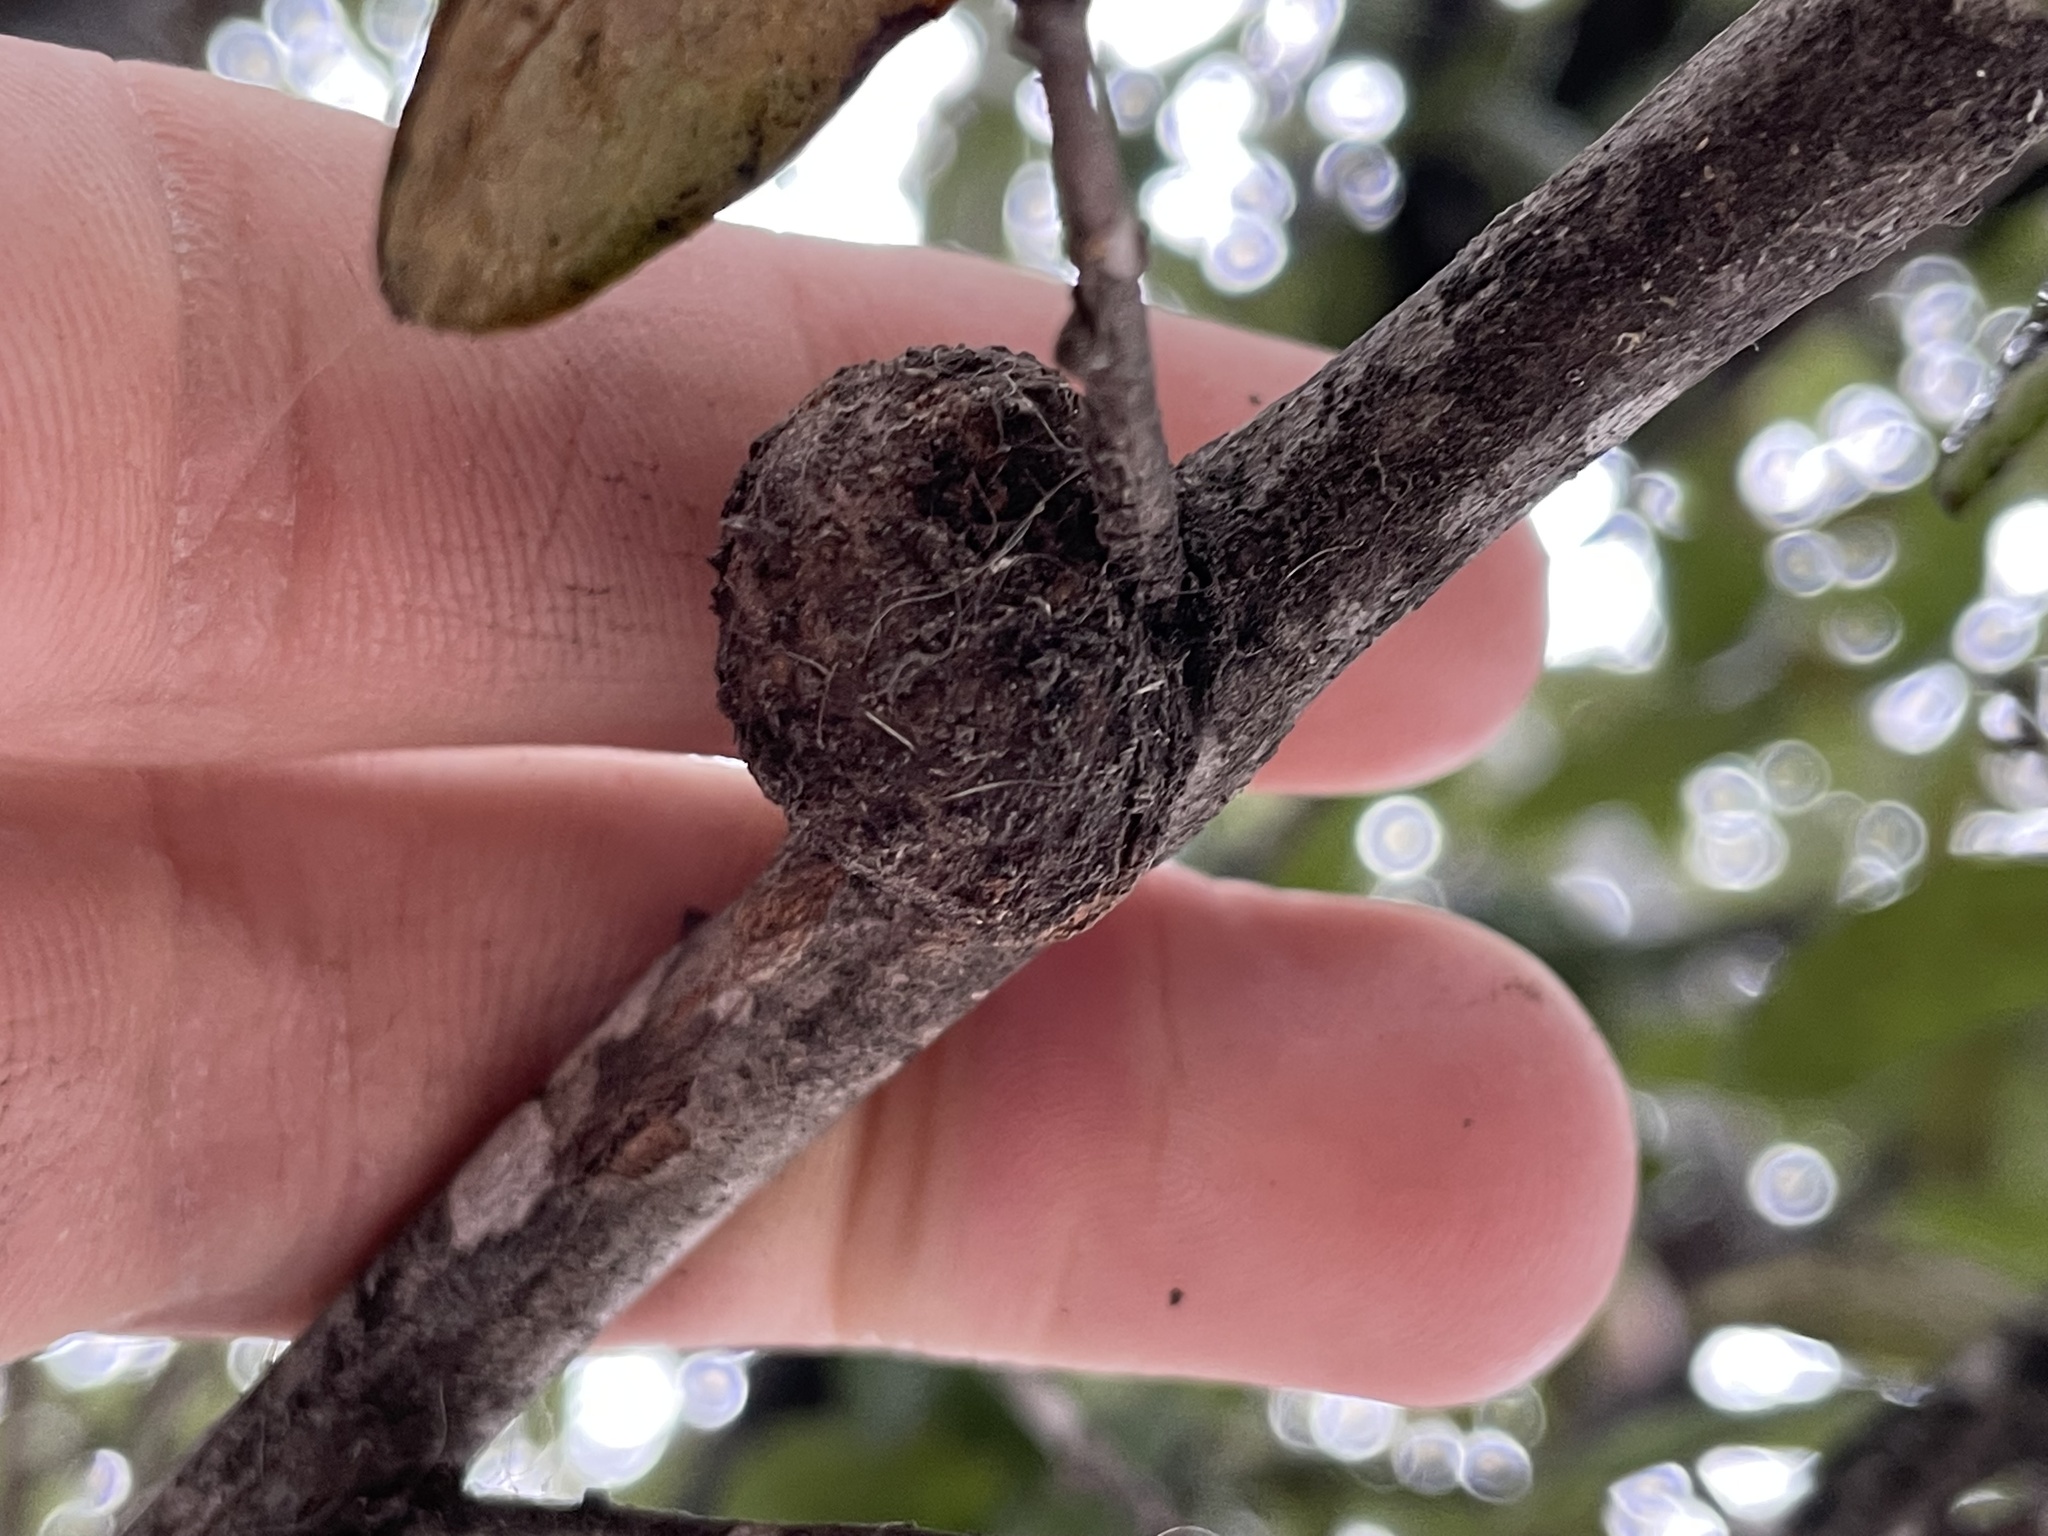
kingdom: Animalia
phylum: Arthropoda
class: Insecta
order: Hymenoptera
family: Cynipidae
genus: Callirhytis
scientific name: Callirhytis
